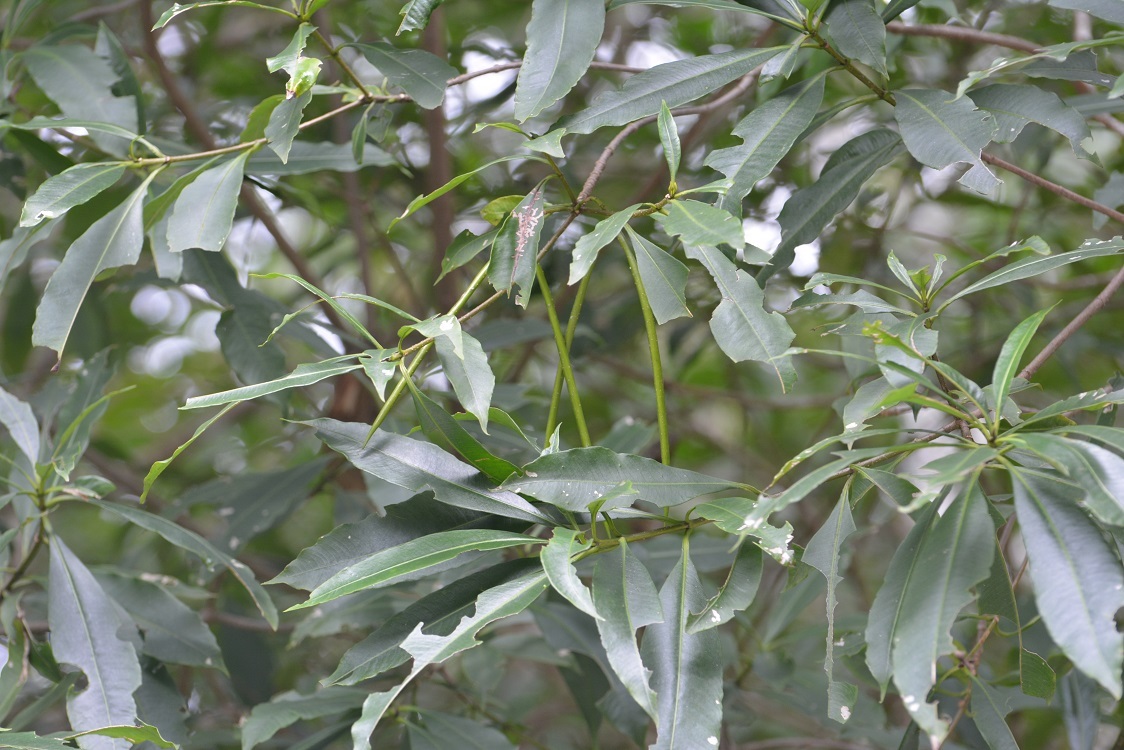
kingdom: Plantae
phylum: Tracheophyta
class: Magnoliopsida
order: Gentianales
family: Apocynaceae
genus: Tonduzia
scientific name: Tonduzia longifolia
